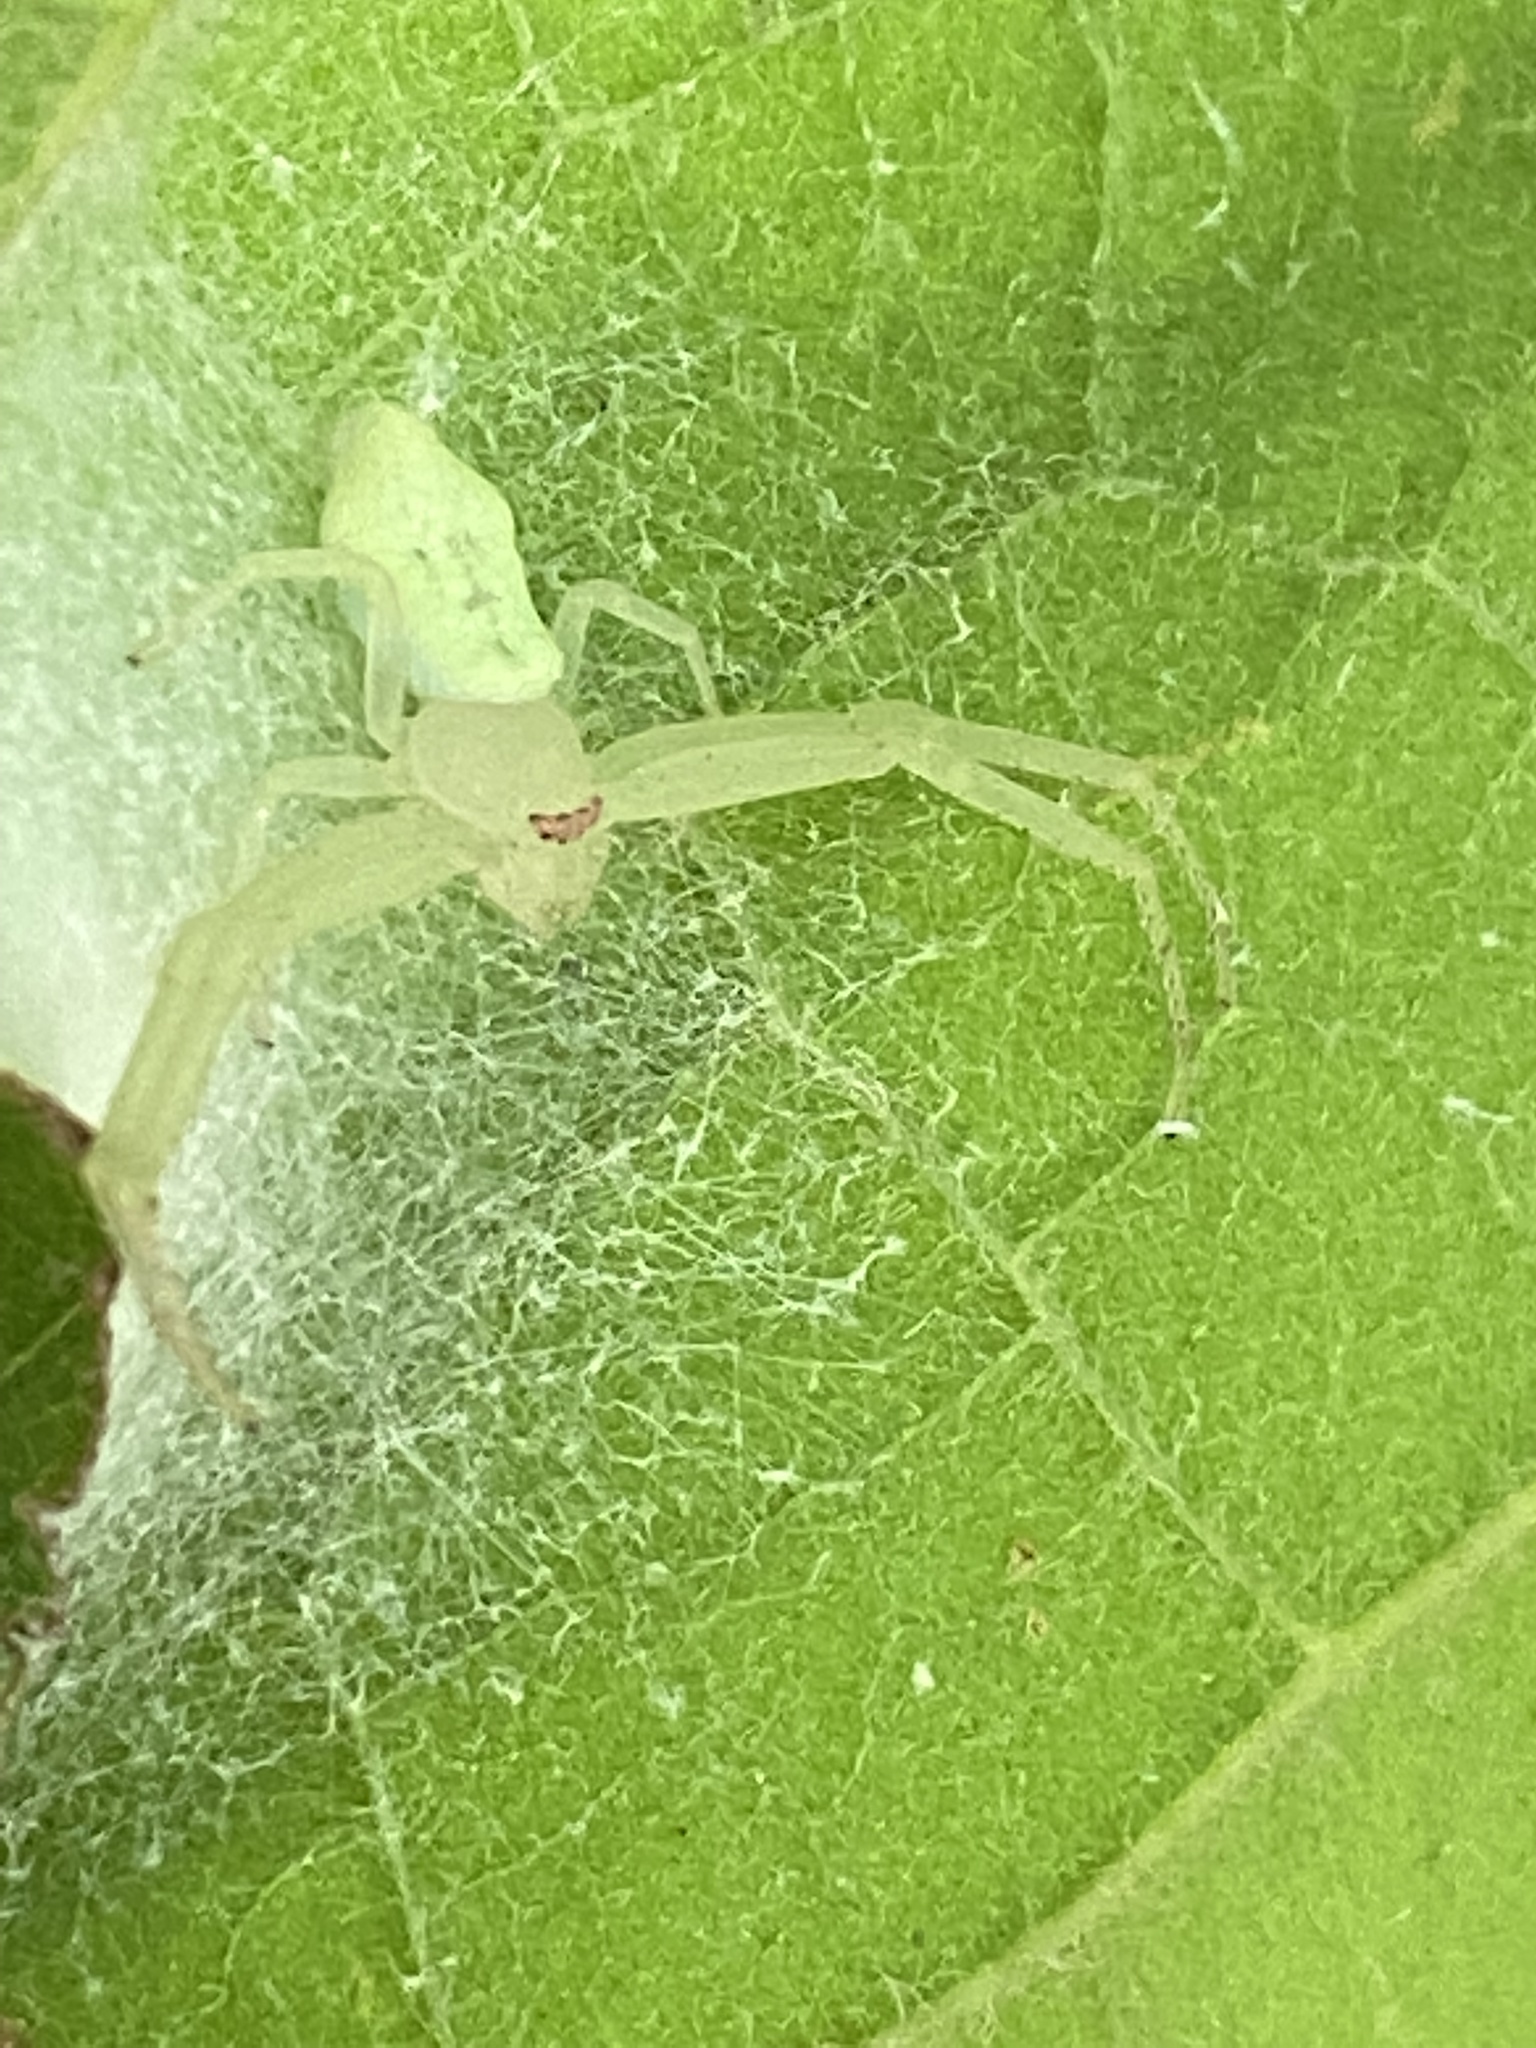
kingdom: Animalia
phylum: Arthropoda
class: Arachnida
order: Araneae
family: Thomisidae
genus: Misumessus
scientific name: Misumessus oblongus
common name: American green crab spider
